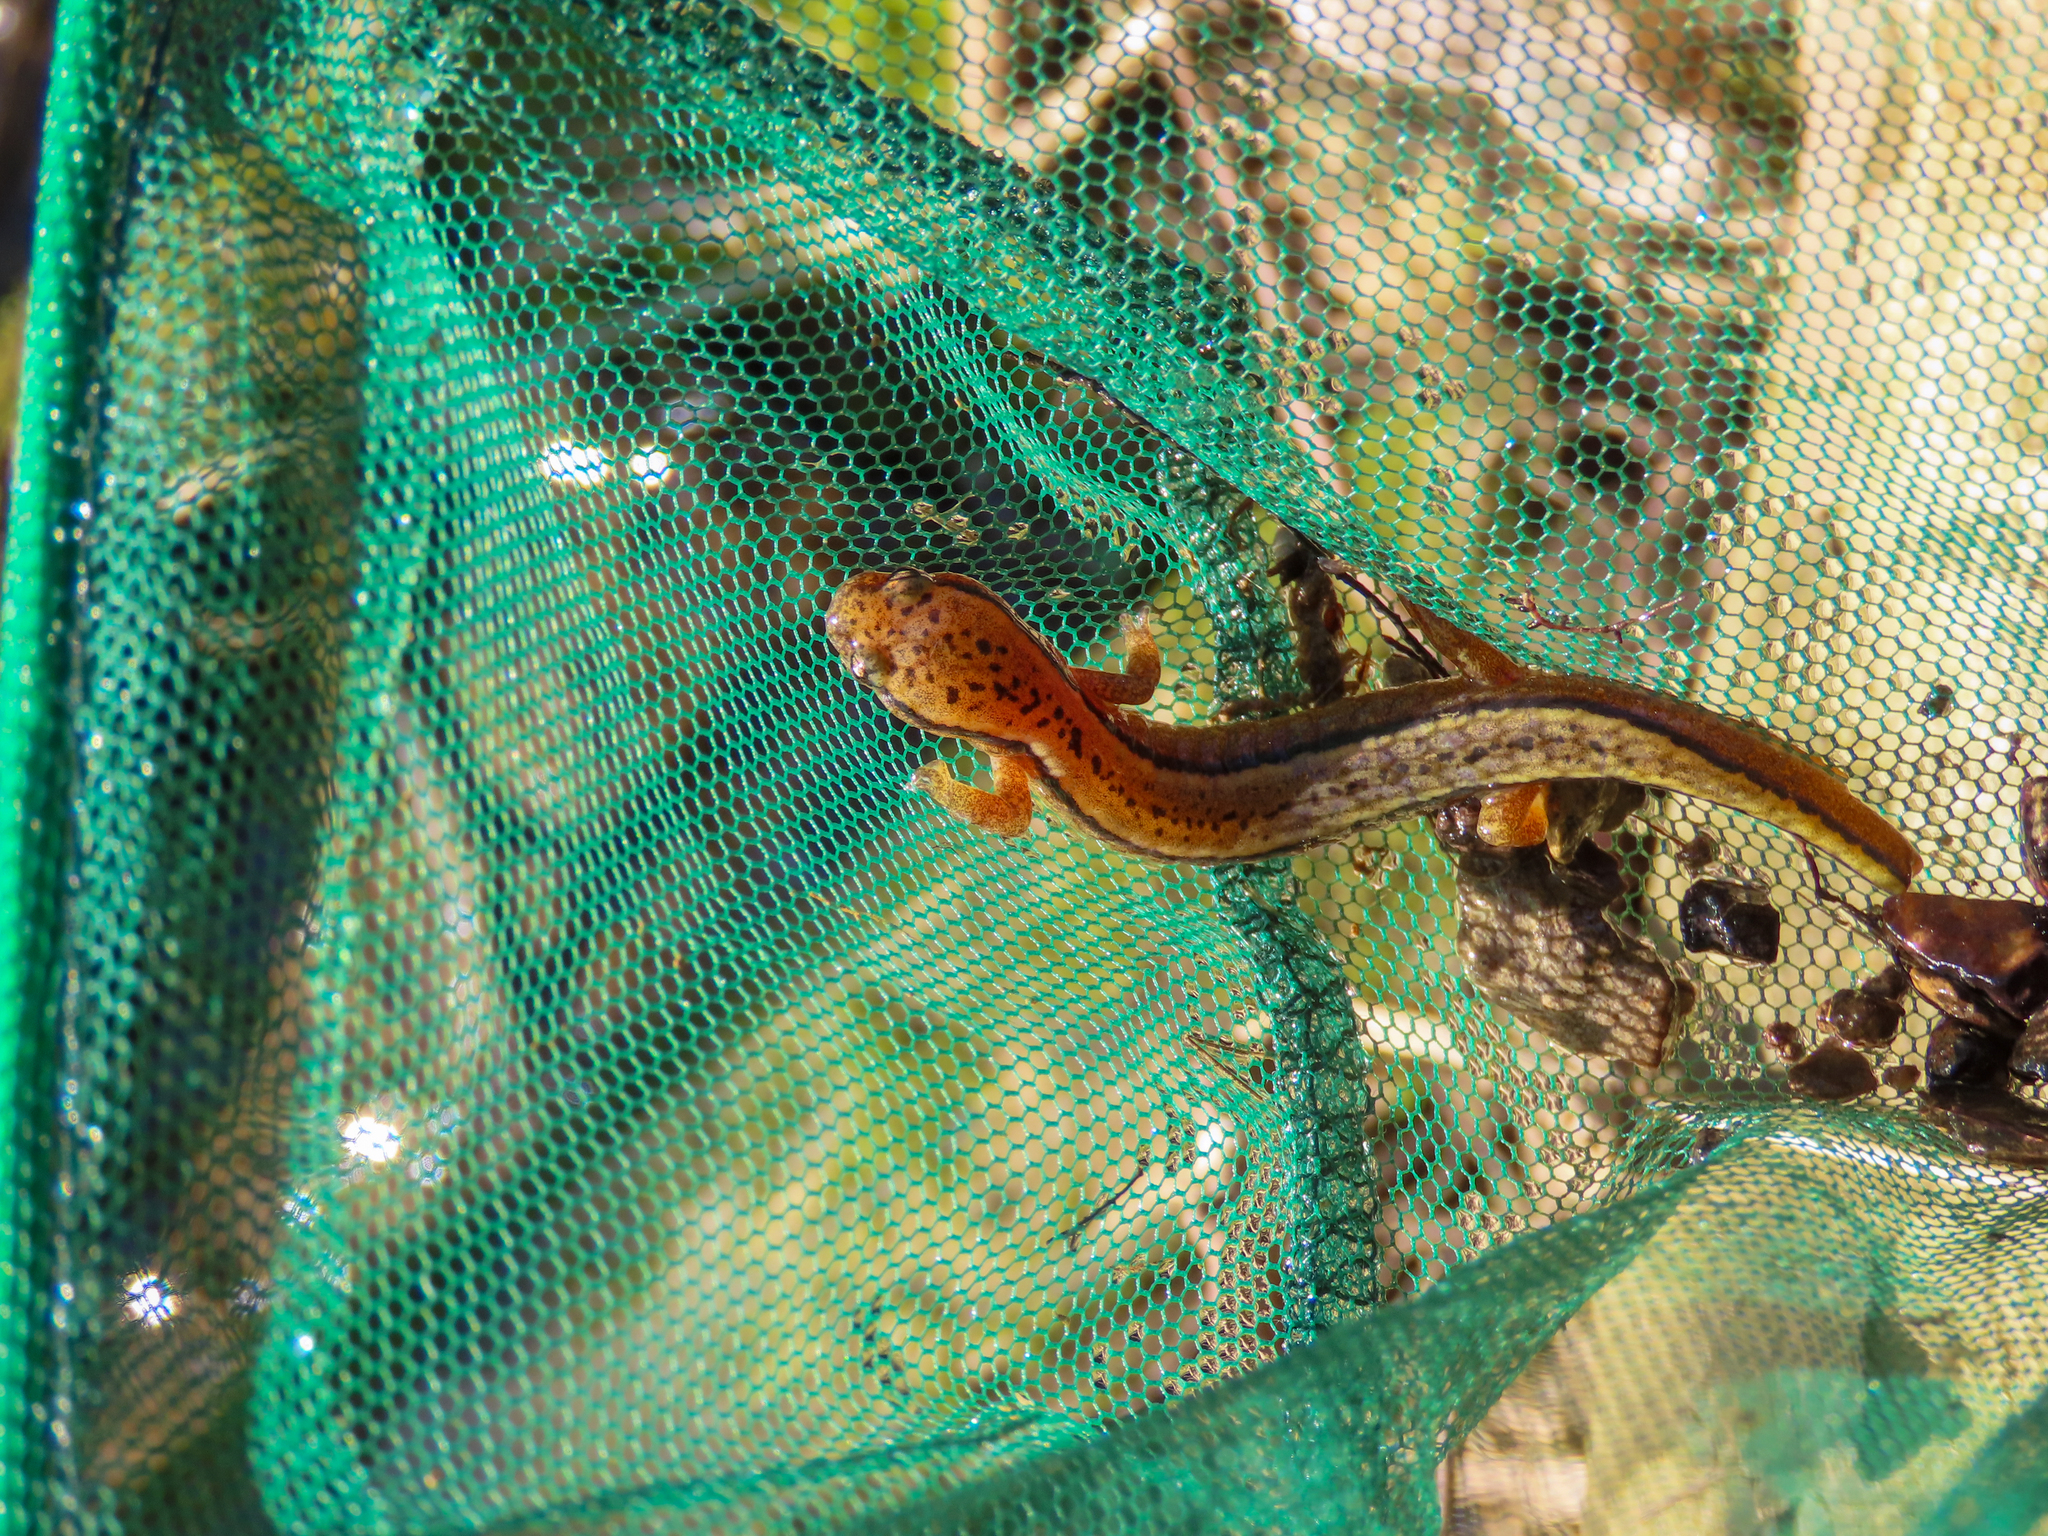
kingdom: Animalia
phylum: Chordata
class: Amphibia
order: Caudata
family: Plethodontidae
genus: Eurycea
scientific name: Eurycea aquatica
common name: Brown-backed salamander
